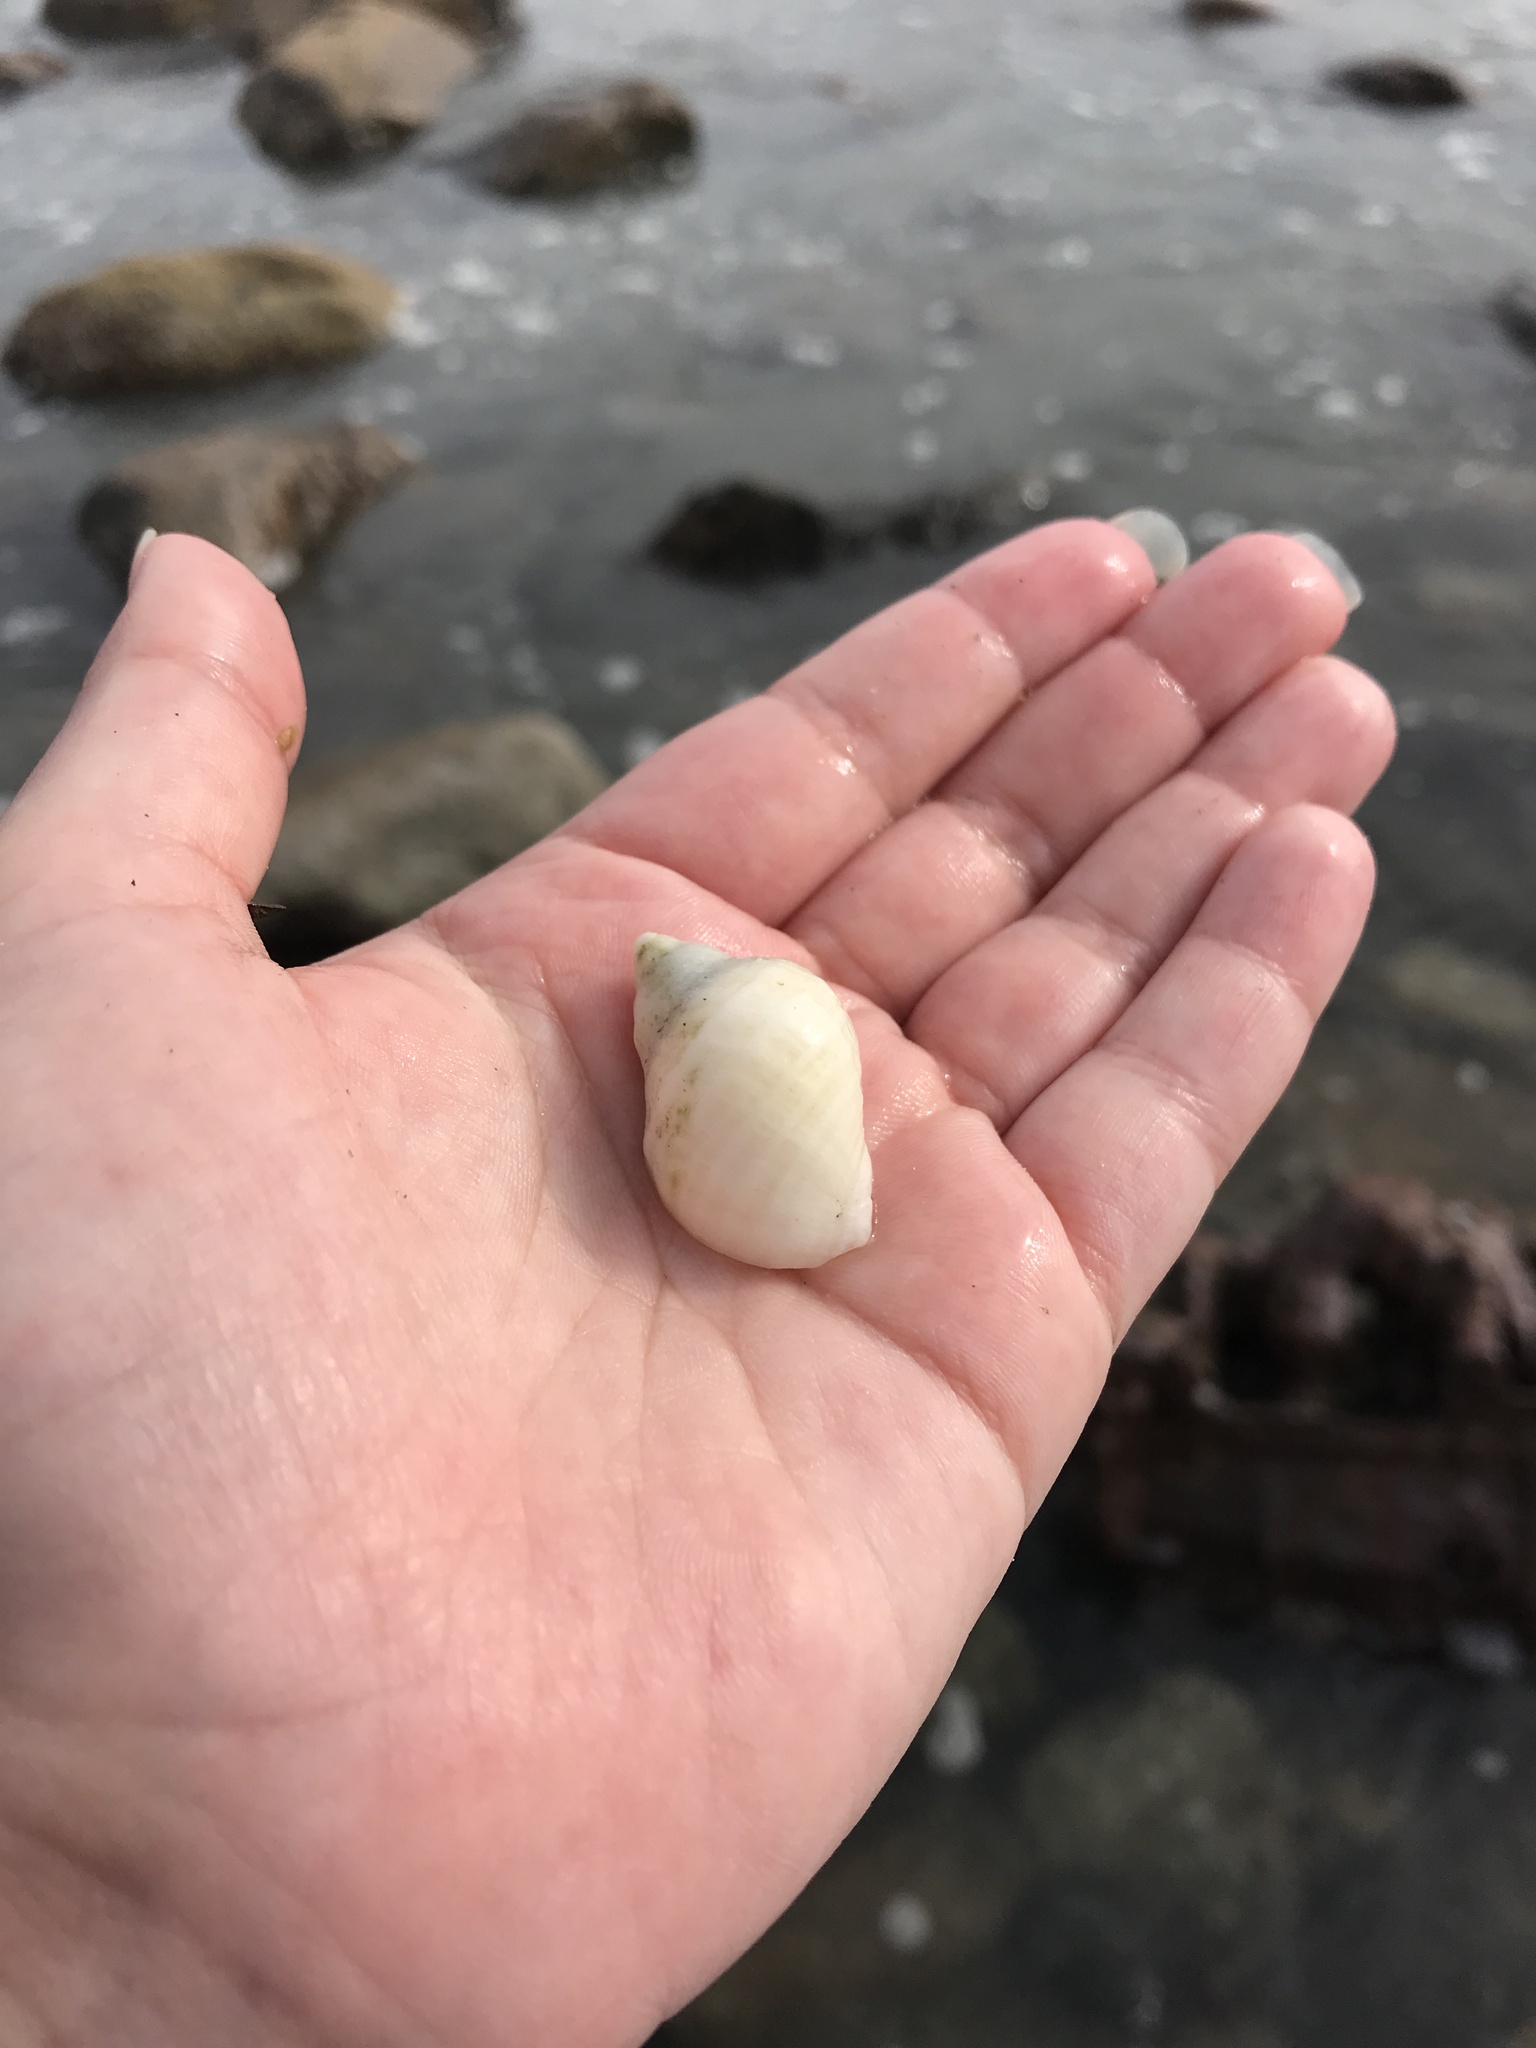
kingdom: Animalia
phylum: Mollusca
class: Gastropoda
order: Neogastropoda
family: Muricidae
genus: Nucella
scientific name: Nucella lapillus
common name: Dog whelk
